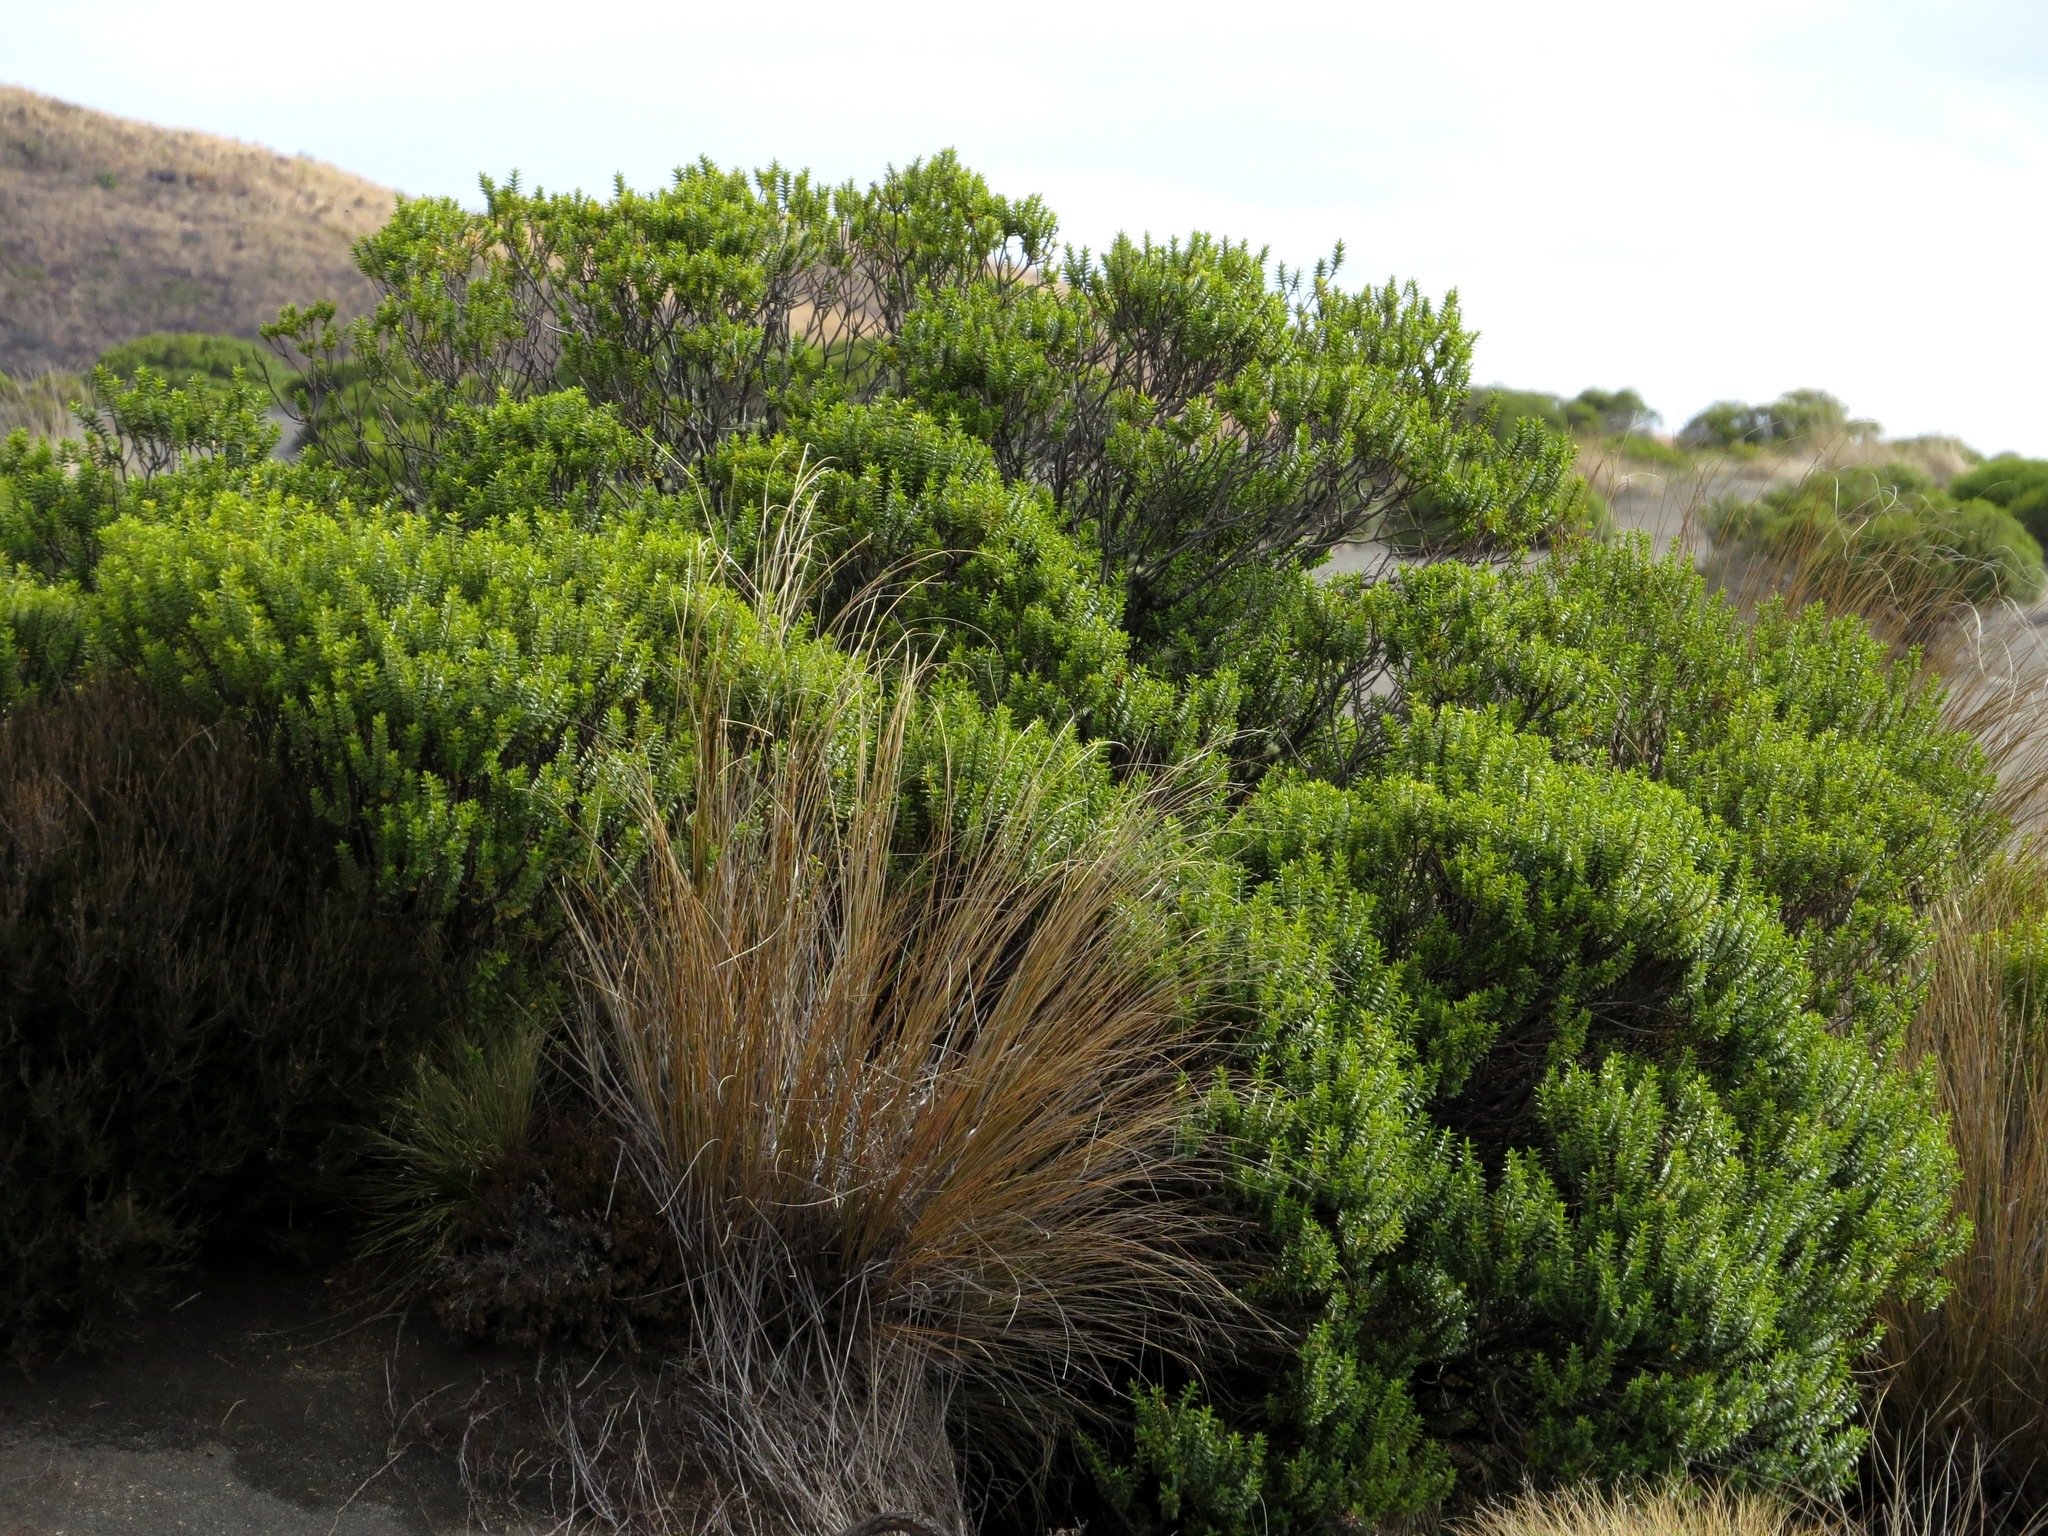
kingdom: Plantae
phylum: Tracheophyta
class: Magnoliopsida
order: Lamiales
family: Plantaginaceae
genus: Veronica
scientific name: Veronica venustula
